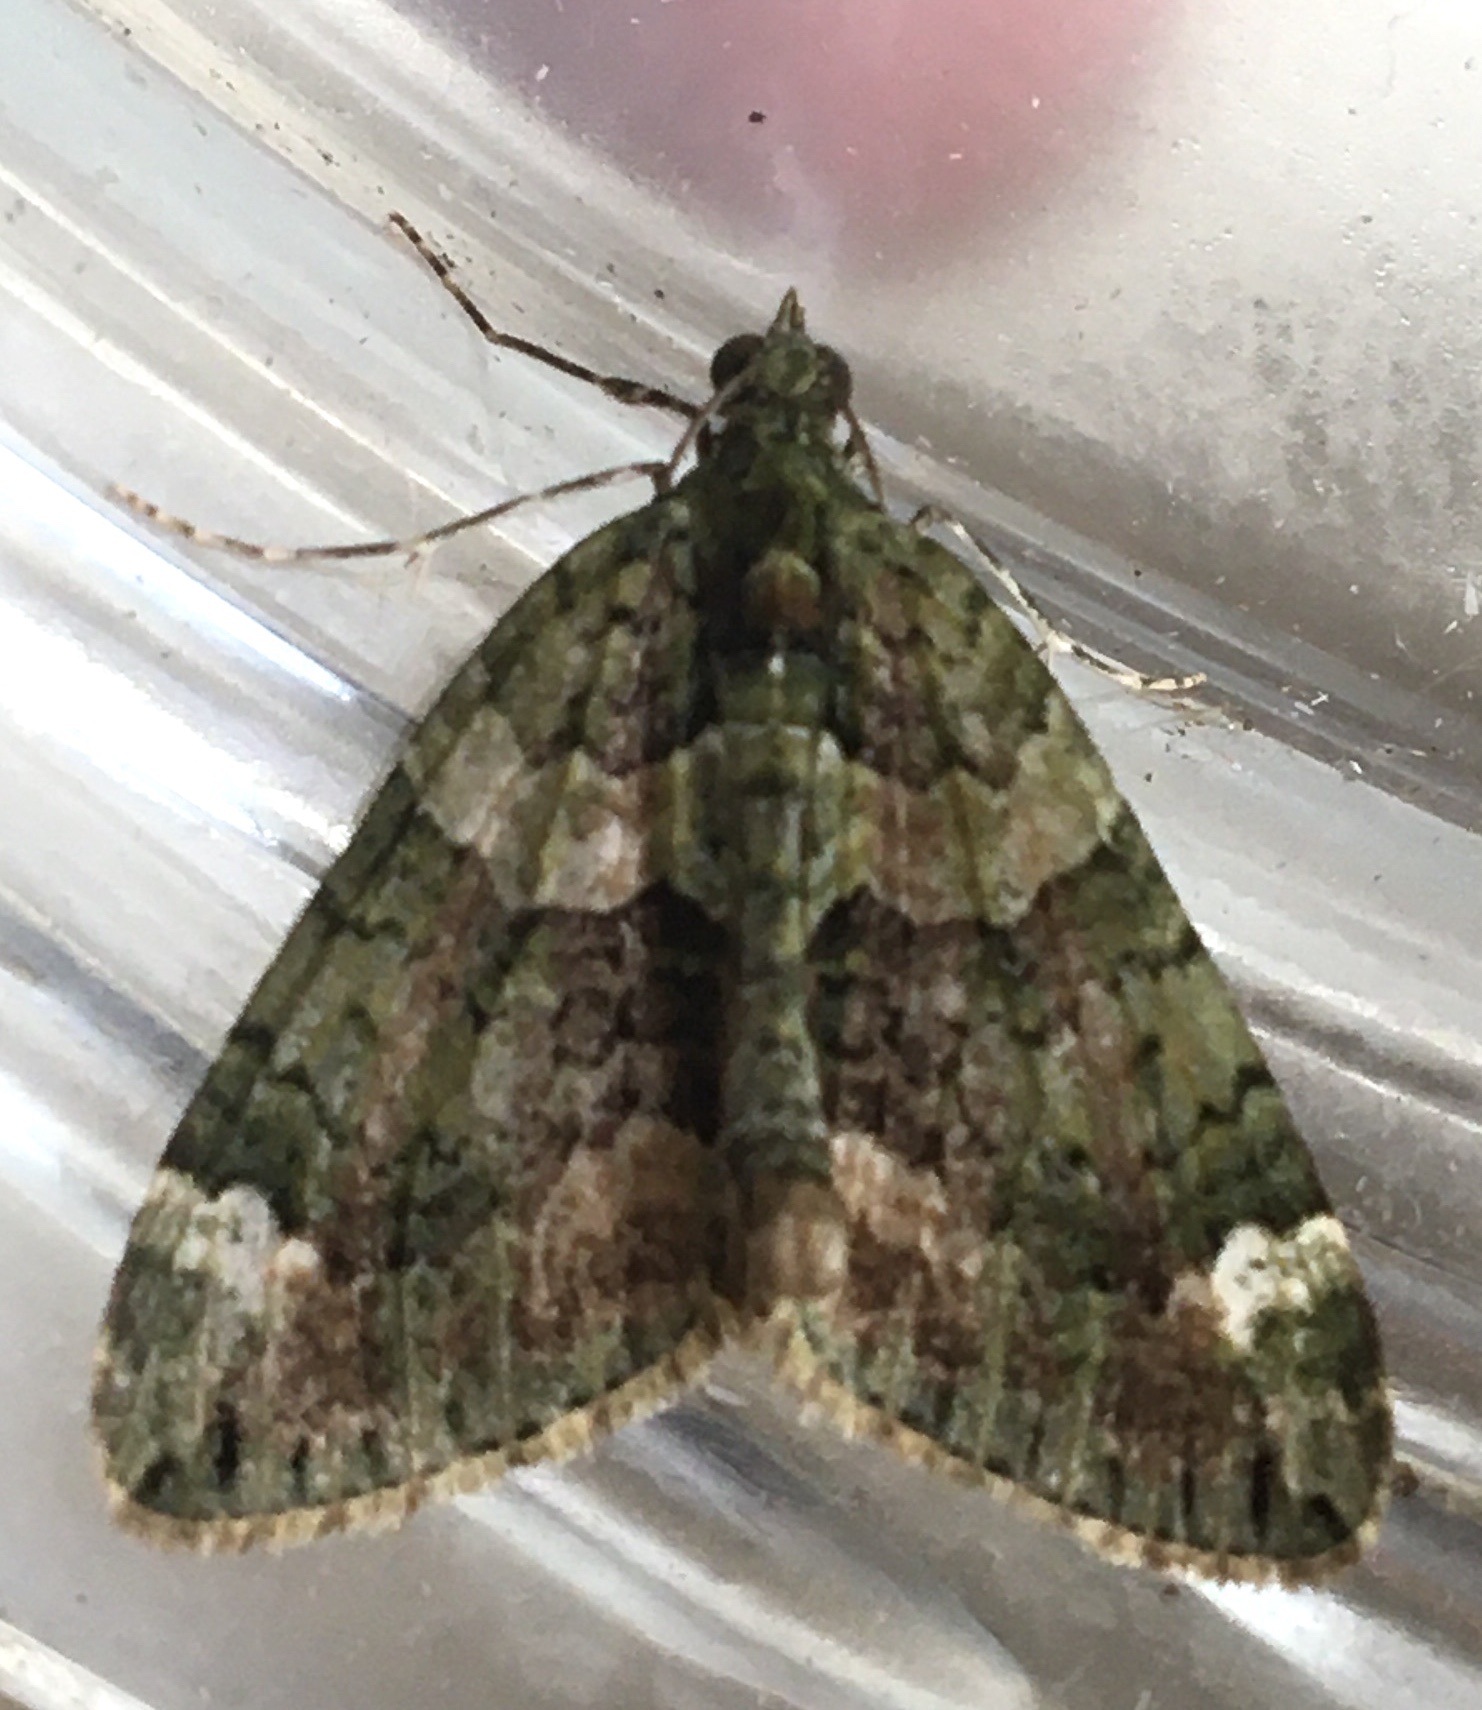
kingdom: Animalia
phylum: Arthropoda
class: Insecta
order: Lepidoptera
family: Geometridae
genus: Chloroclysta
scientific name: Chloroclysta siterata
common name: Red-green carpet
